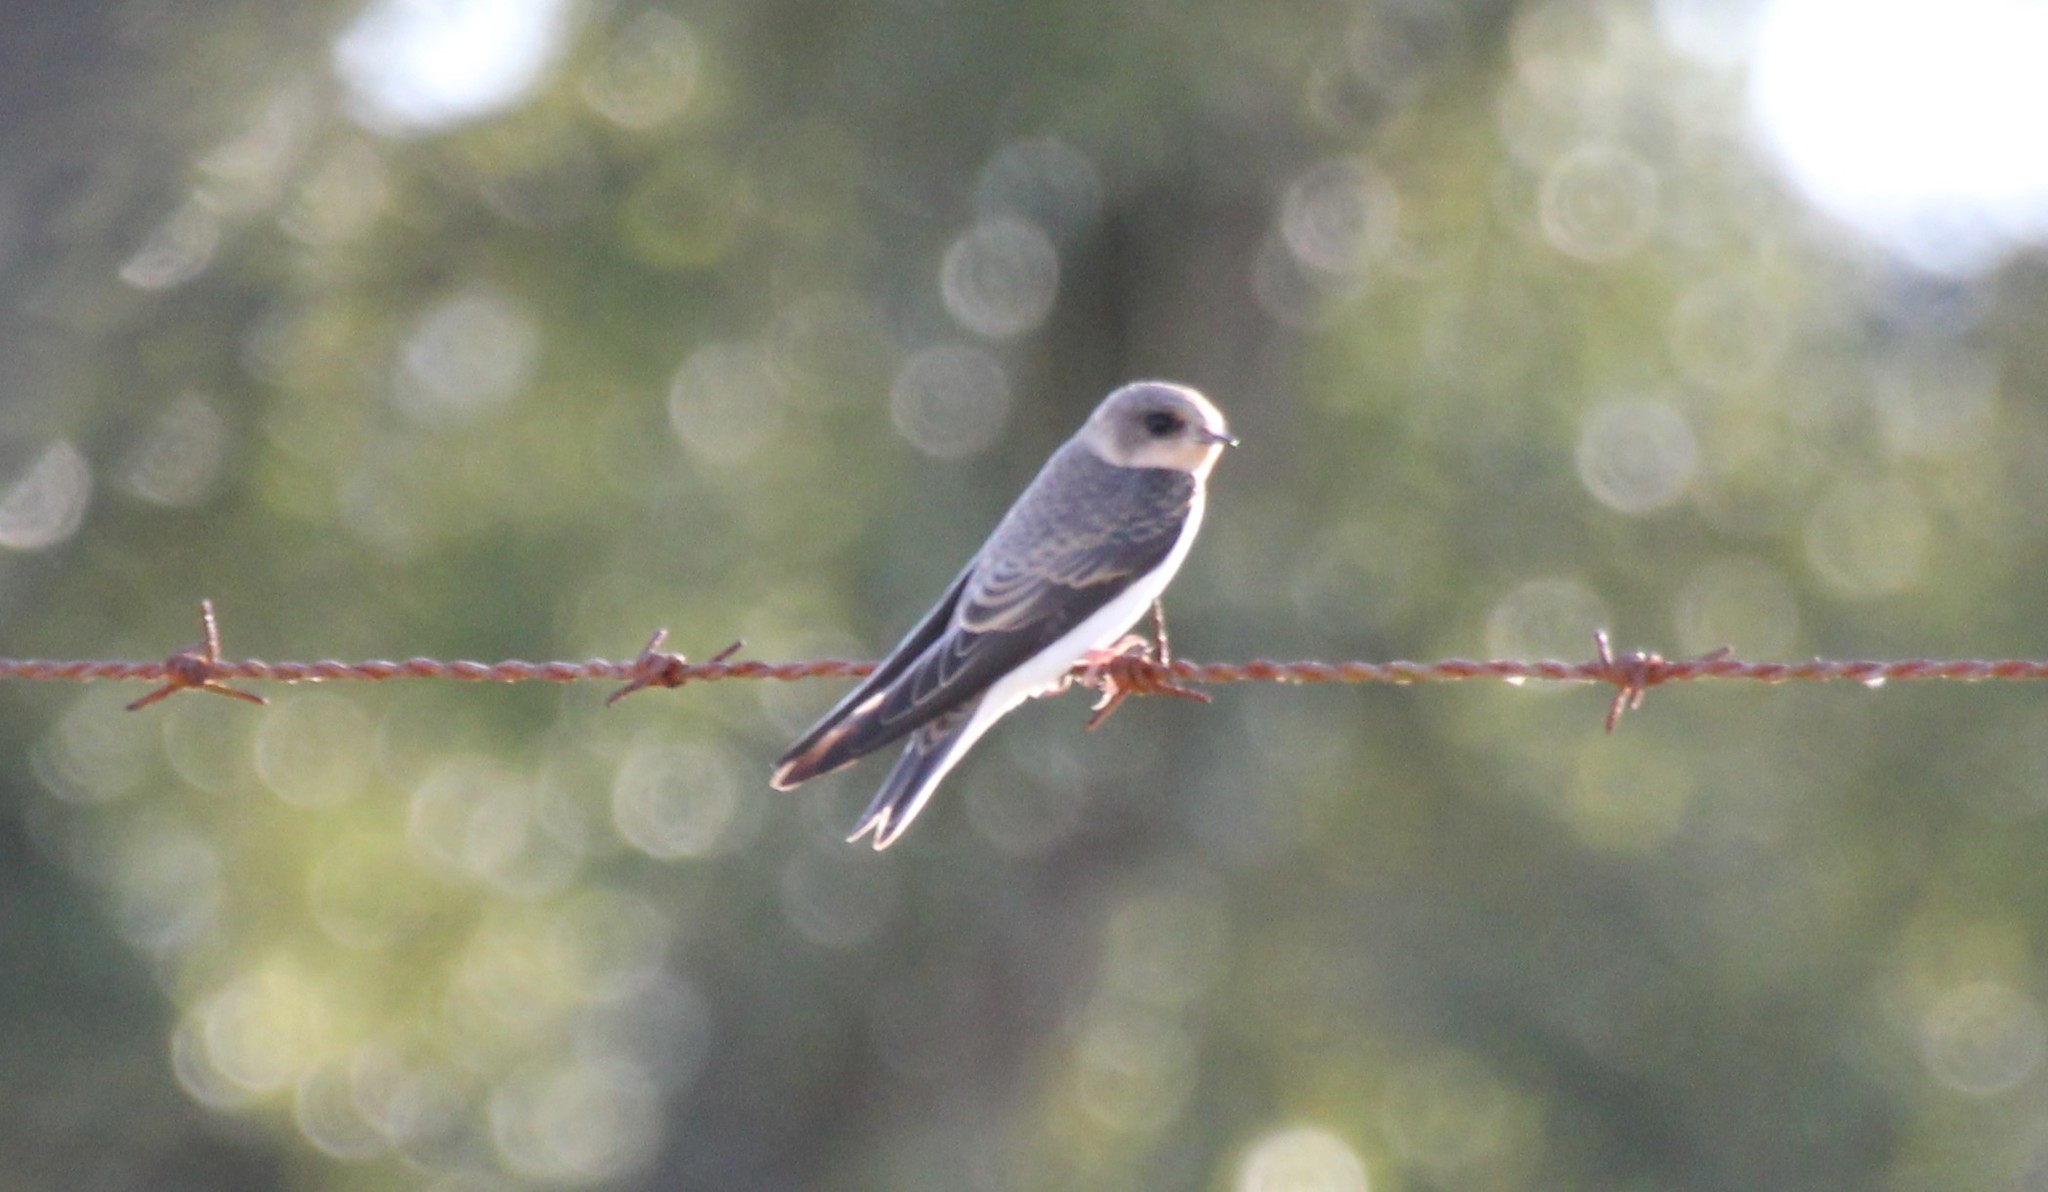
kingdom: Animalia
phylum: Chordata
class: Aves
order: Passeriformes
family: Hirundinidae
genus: Riparia
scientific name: Riparia riparia
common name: Sand martin
